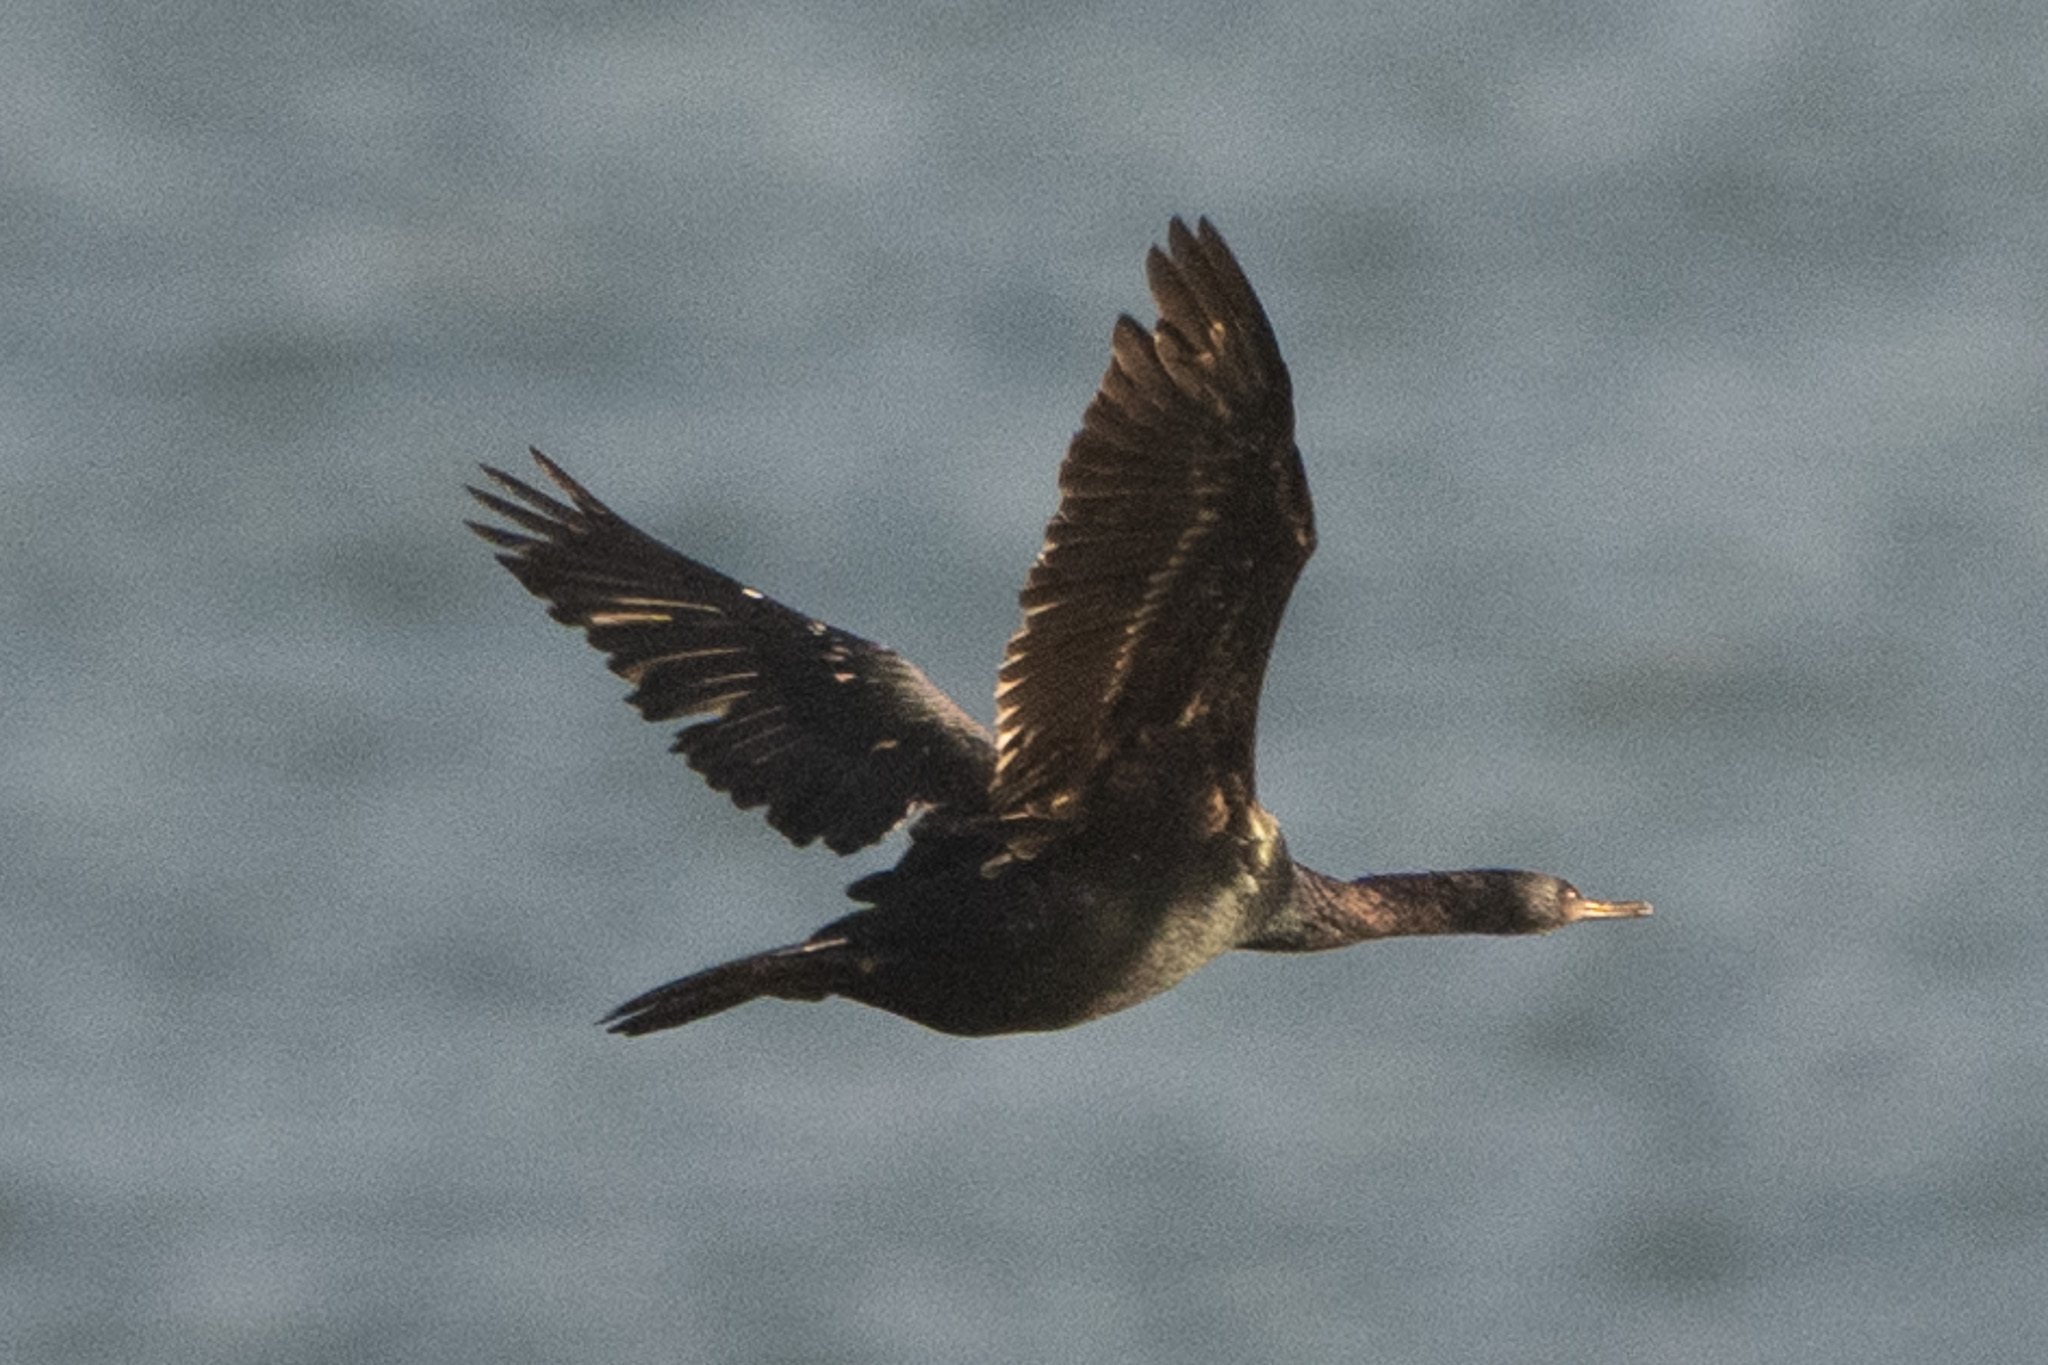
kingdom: Animalia
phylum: Chordata
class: Aves
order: Suliformes
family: Phalacrocoracidae
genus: Phalacrocorax
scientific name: Phalacrocorax pelagicus
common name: Pelagic cormorant
